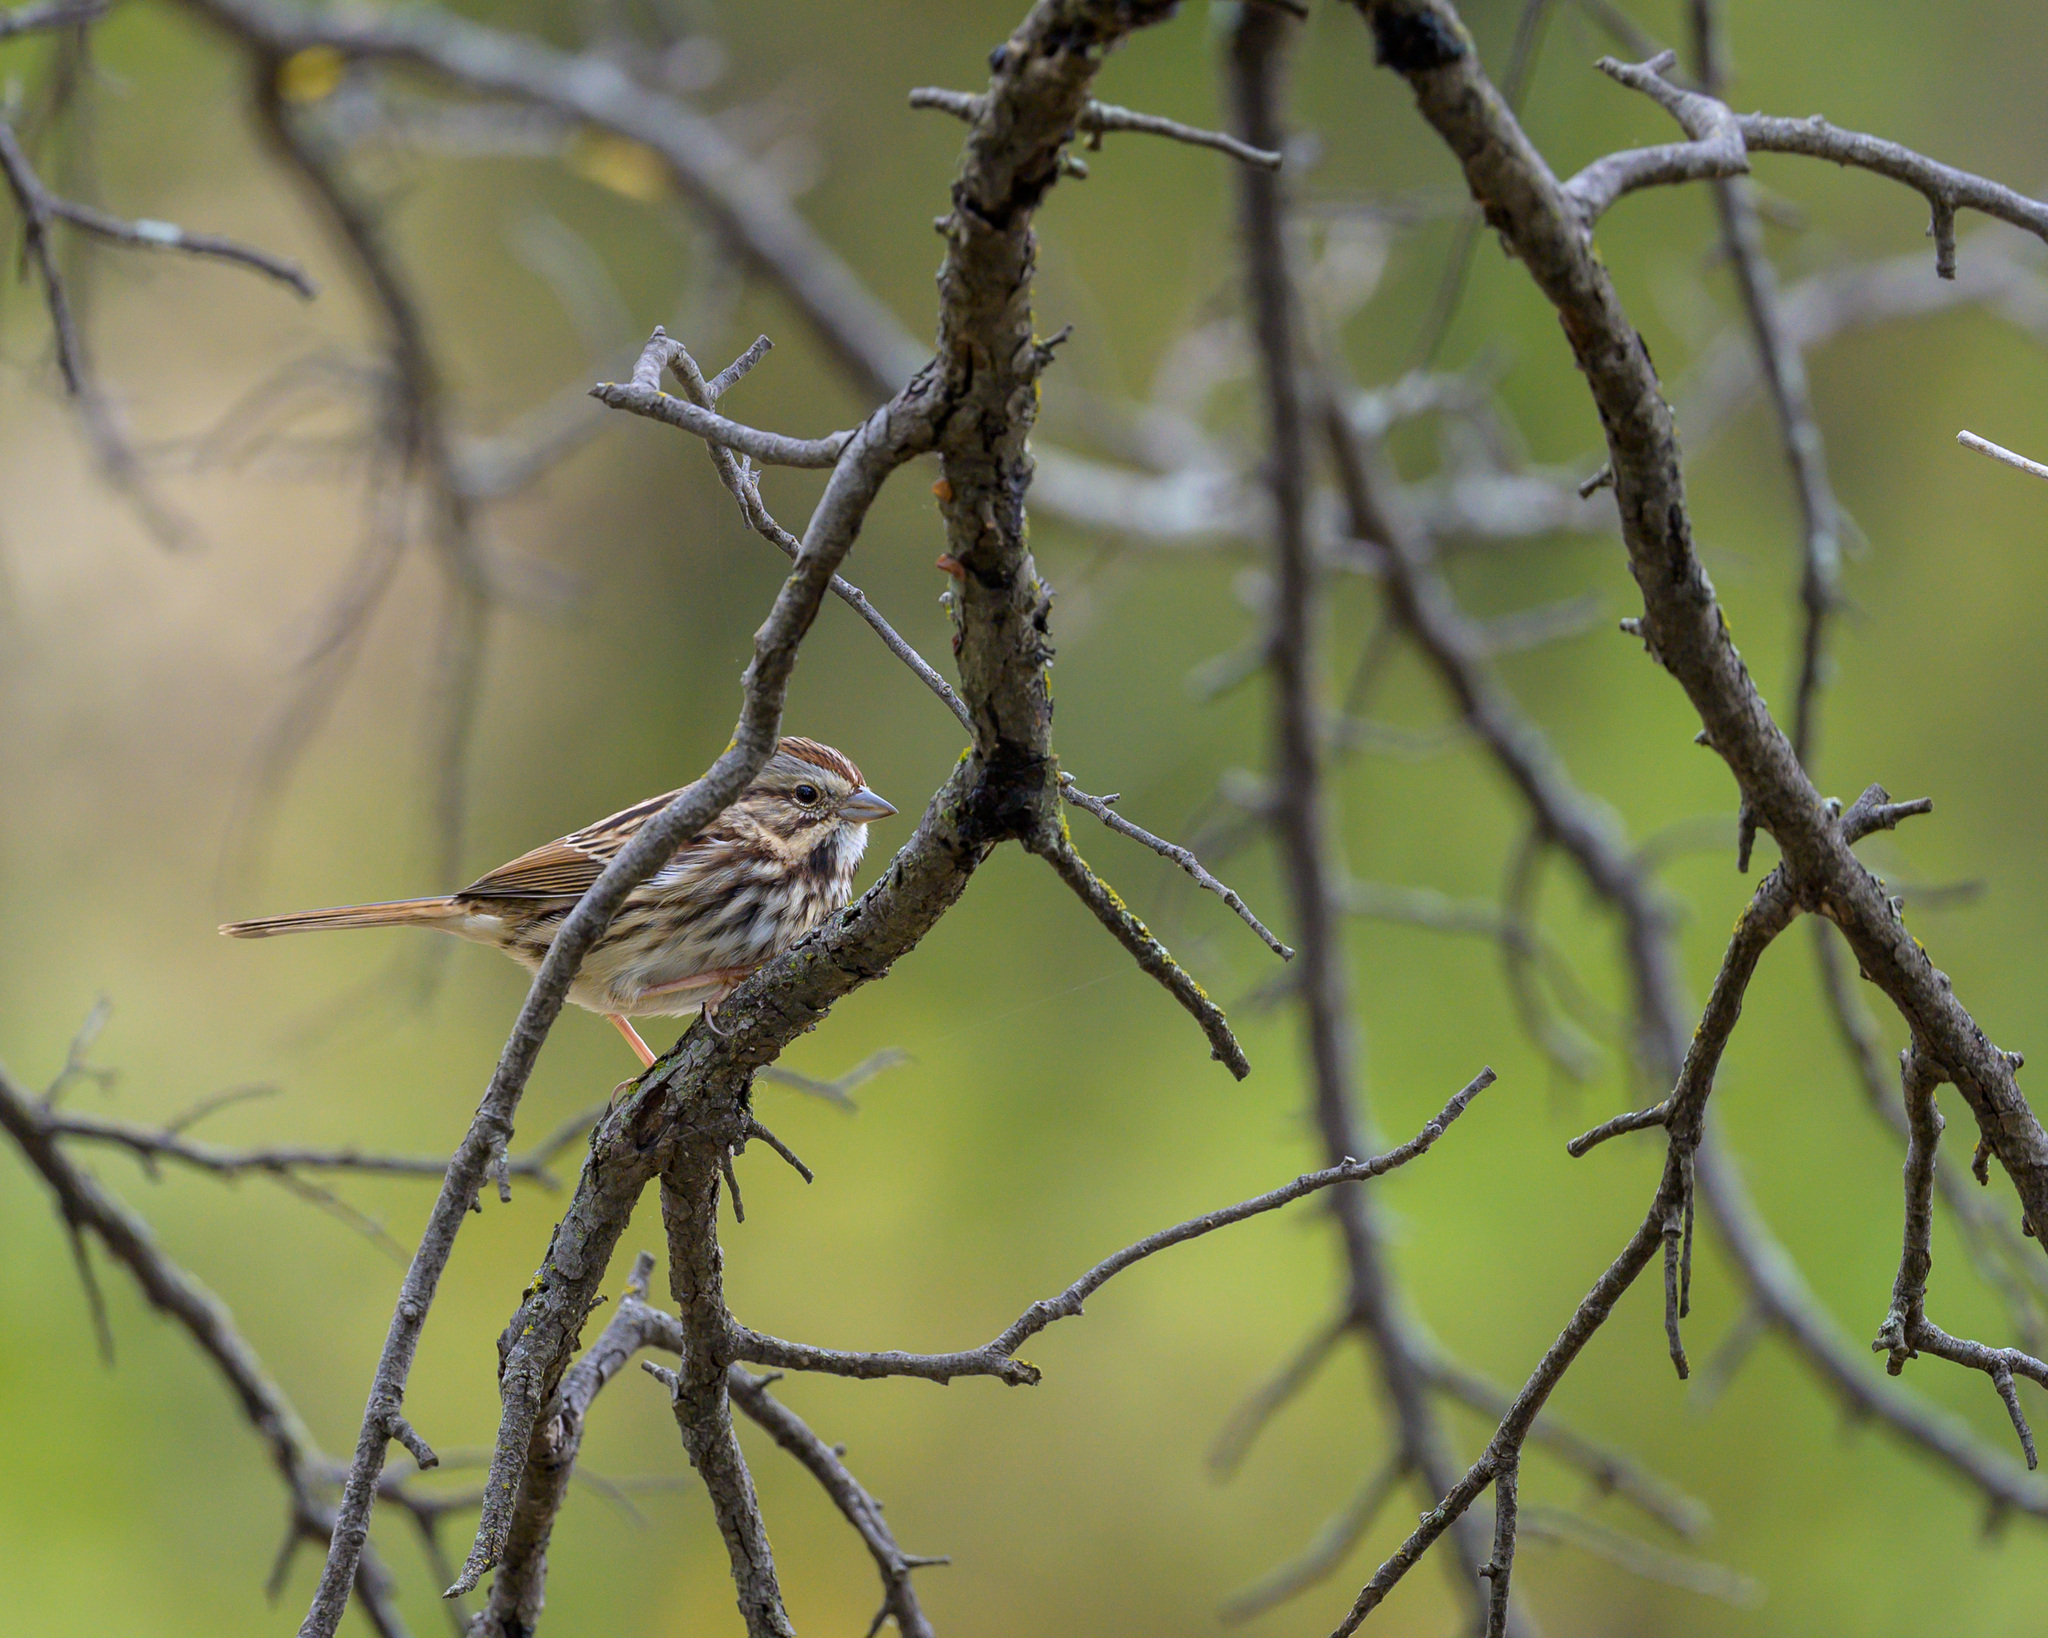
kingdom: Animalia
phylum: Chordata
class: Aves
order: Passeriformes
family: Passerellidae
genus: Melospiza
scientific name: Melospiza melodia
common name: Song sparrow
